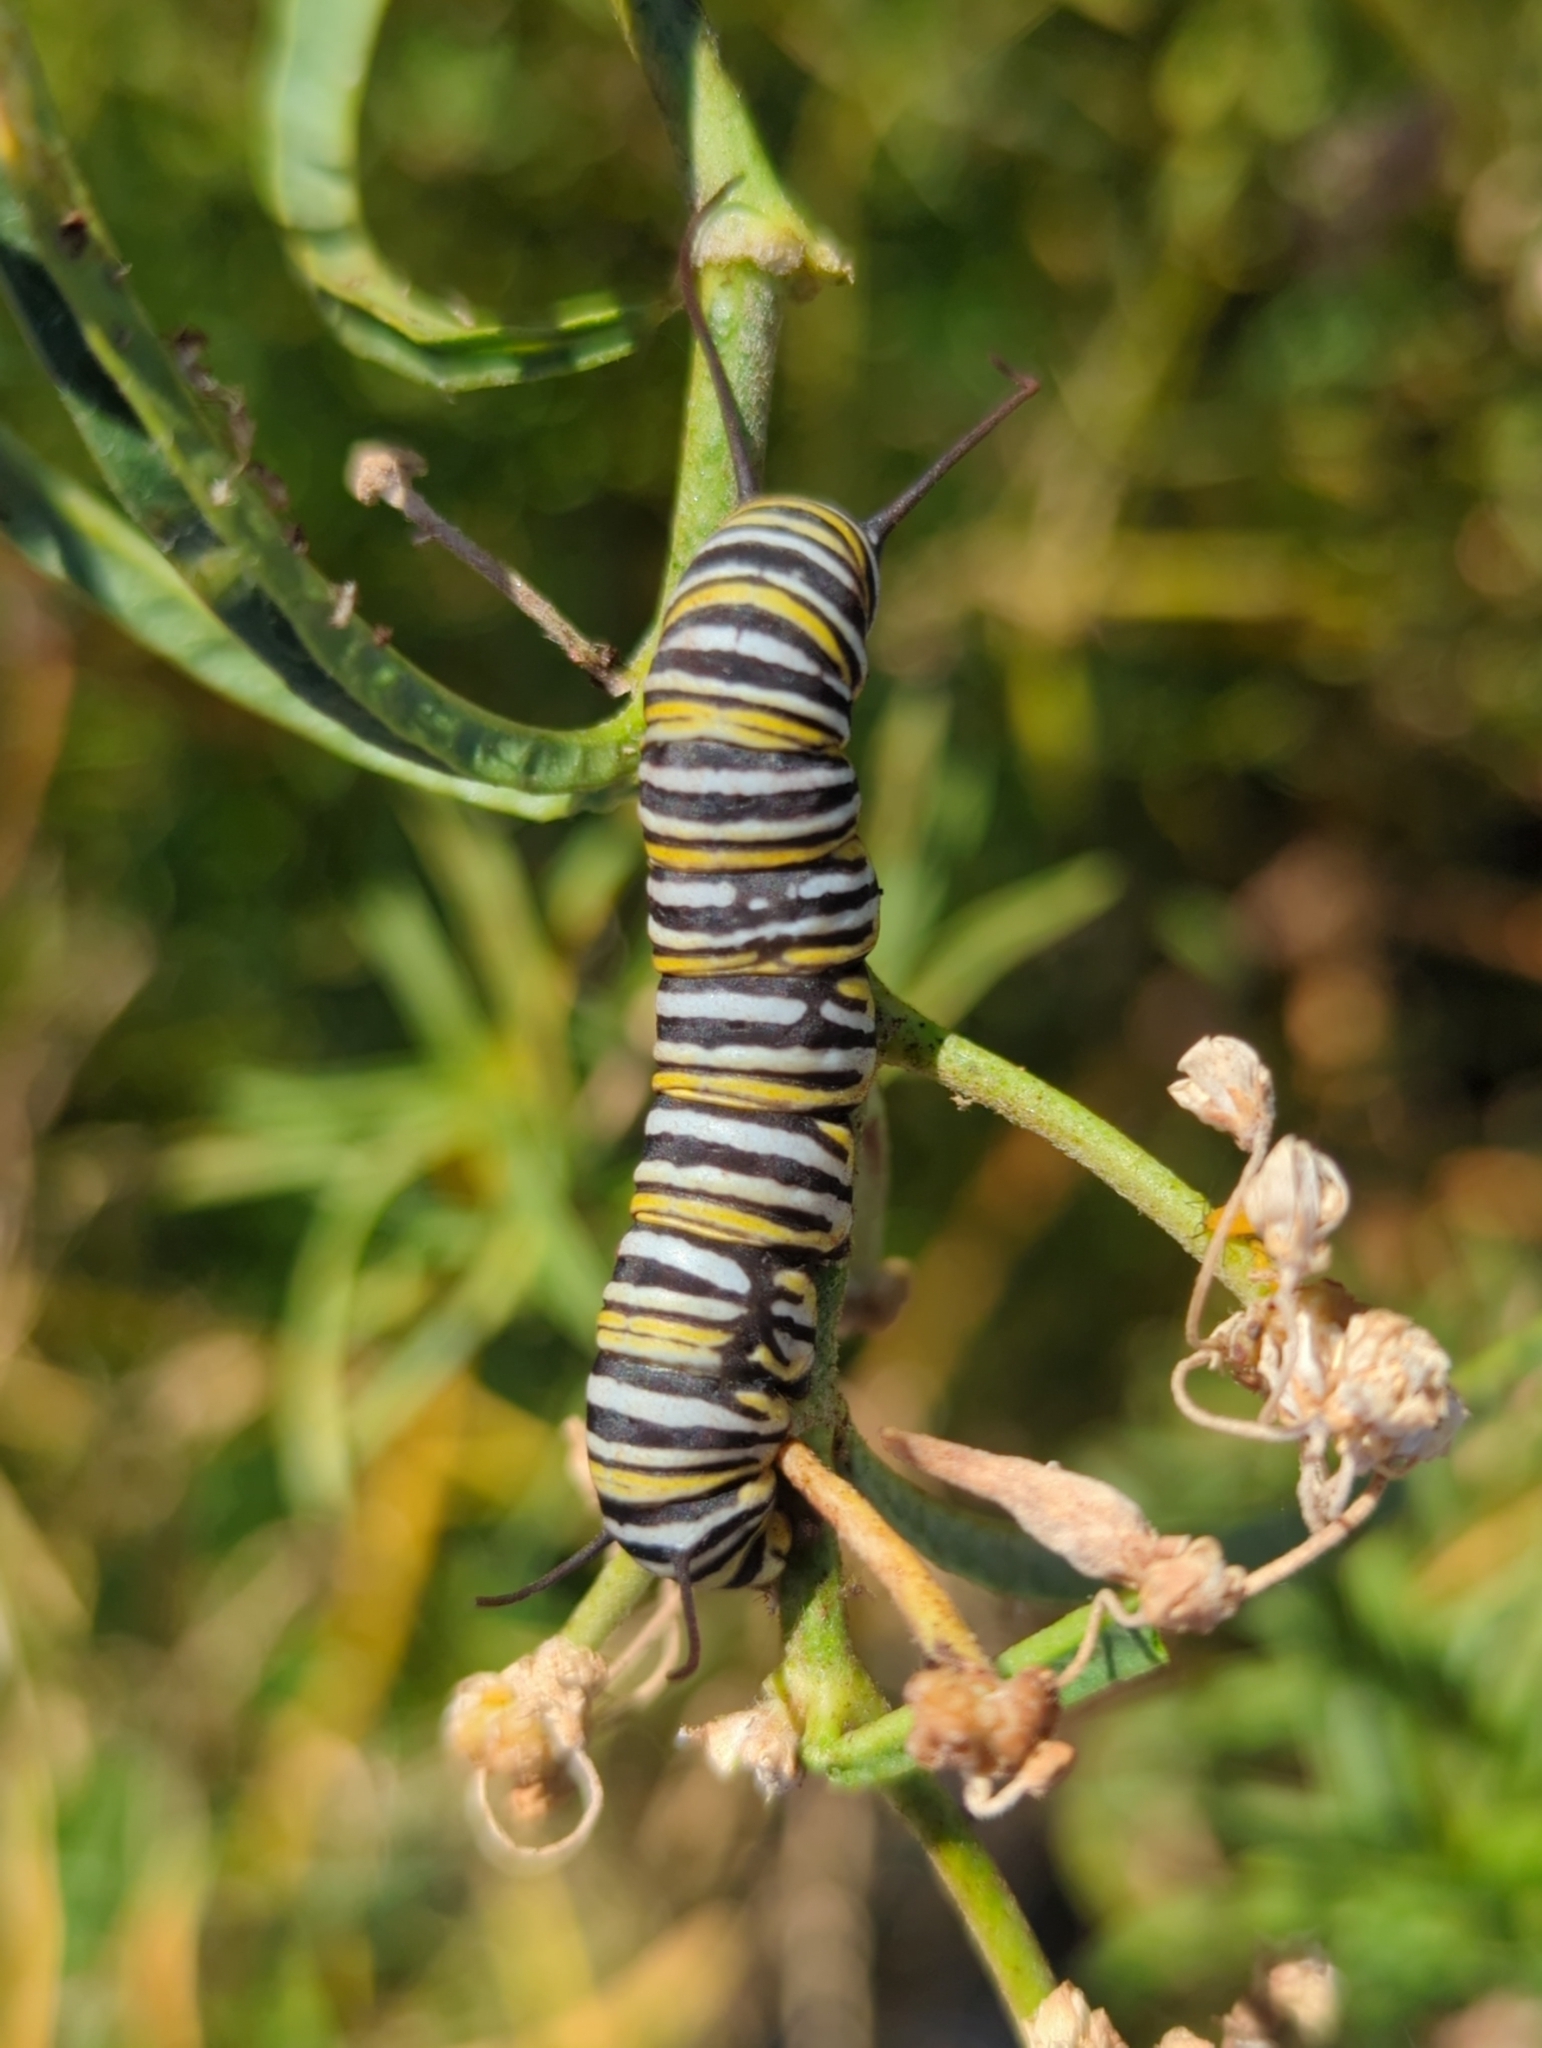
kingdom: Animalia
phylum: Arthropoda
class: Insecta
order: Lepidoptera
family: Nymphalidae
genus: Danaus
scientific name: Danaus plexippus
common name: Monarch
